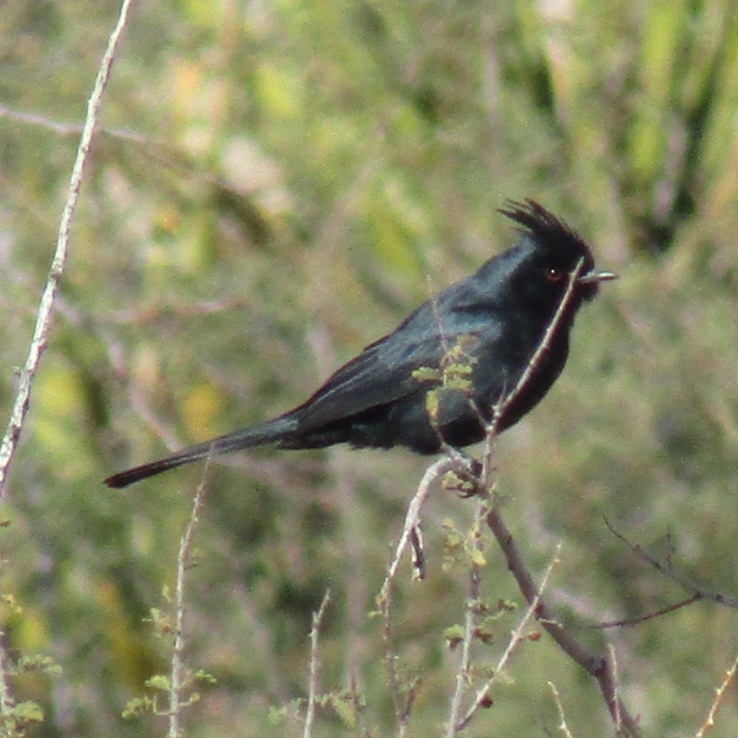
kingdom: Animalia
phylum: Chordata
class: Aves
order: Passeriformes
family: Ptilogonatidae
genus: Phainopepla
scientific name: Phainopepla nitens
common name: Phainopepla
